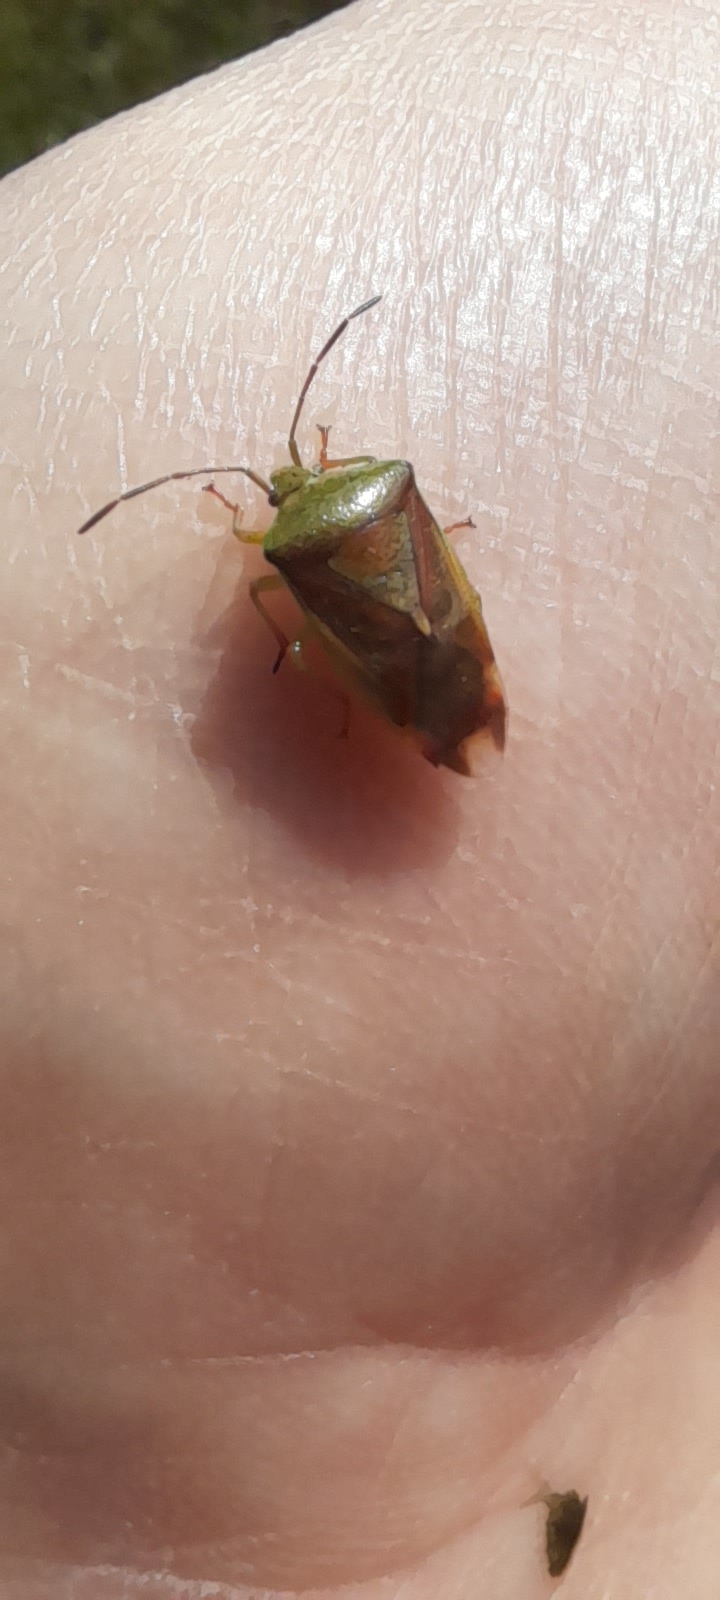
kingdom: Animalia
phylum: Arthropoda
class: Insecta
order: Hemiptera
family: Acanthosomatidae
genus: Elasmostethus
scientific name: Elasmostethus interstinctus
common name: Birch shieldbug
